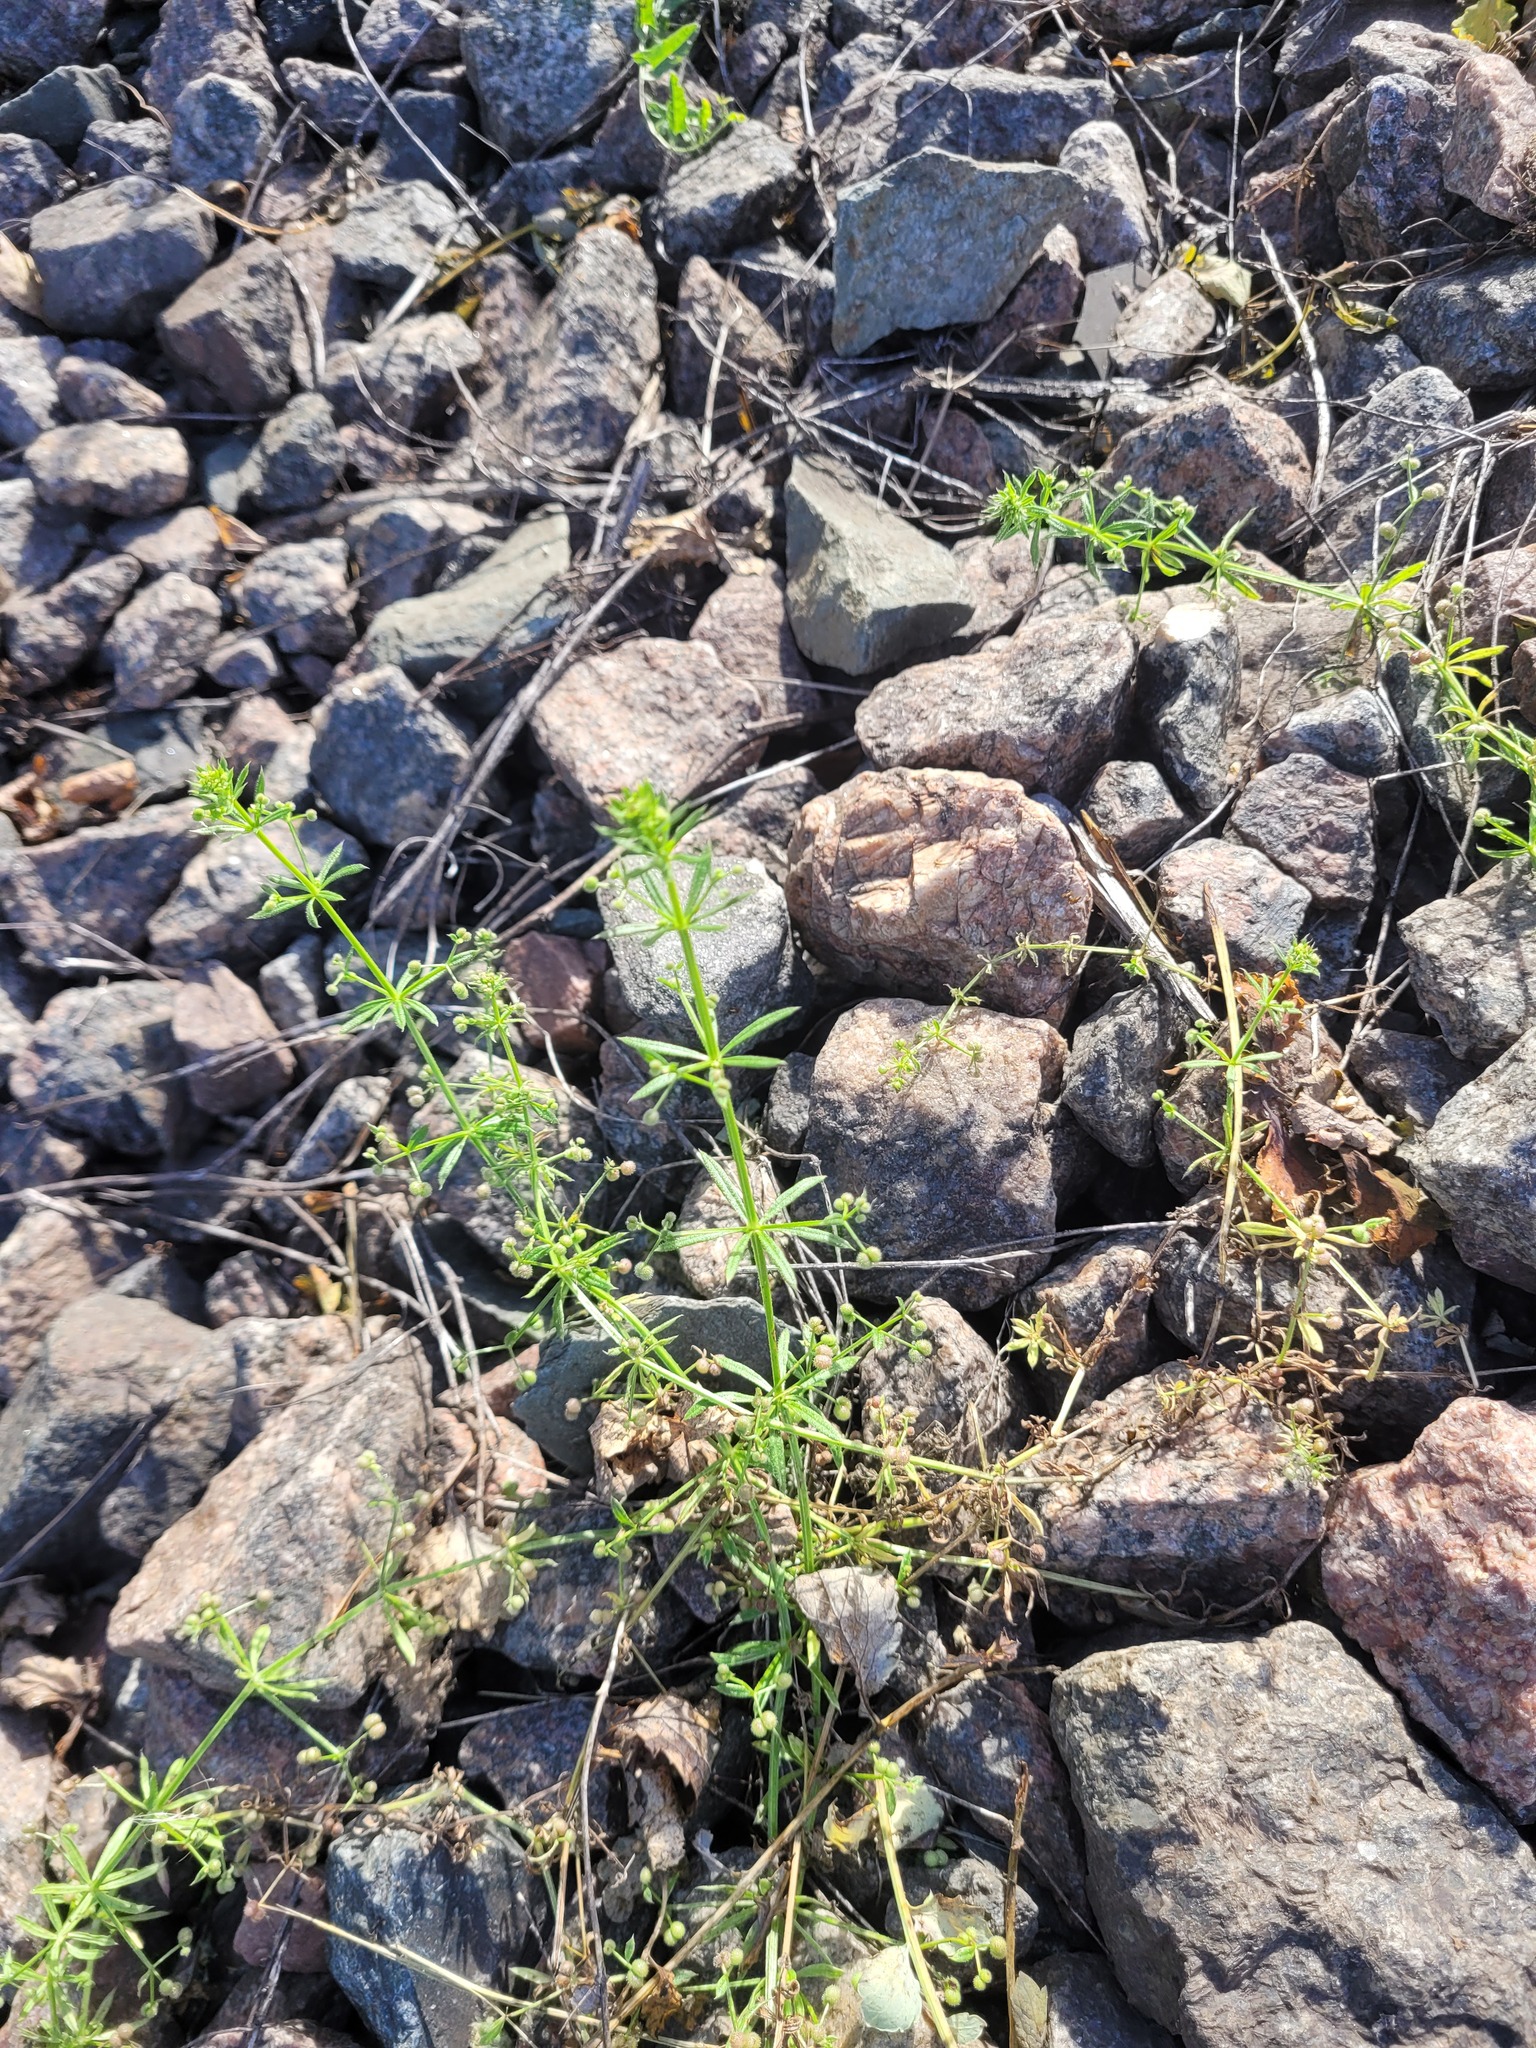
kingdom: Plantae
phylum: Tracheophyta
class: Magnoliopsida
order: Gentianales
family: Rubiaceae
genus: Galium
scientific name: Galium
